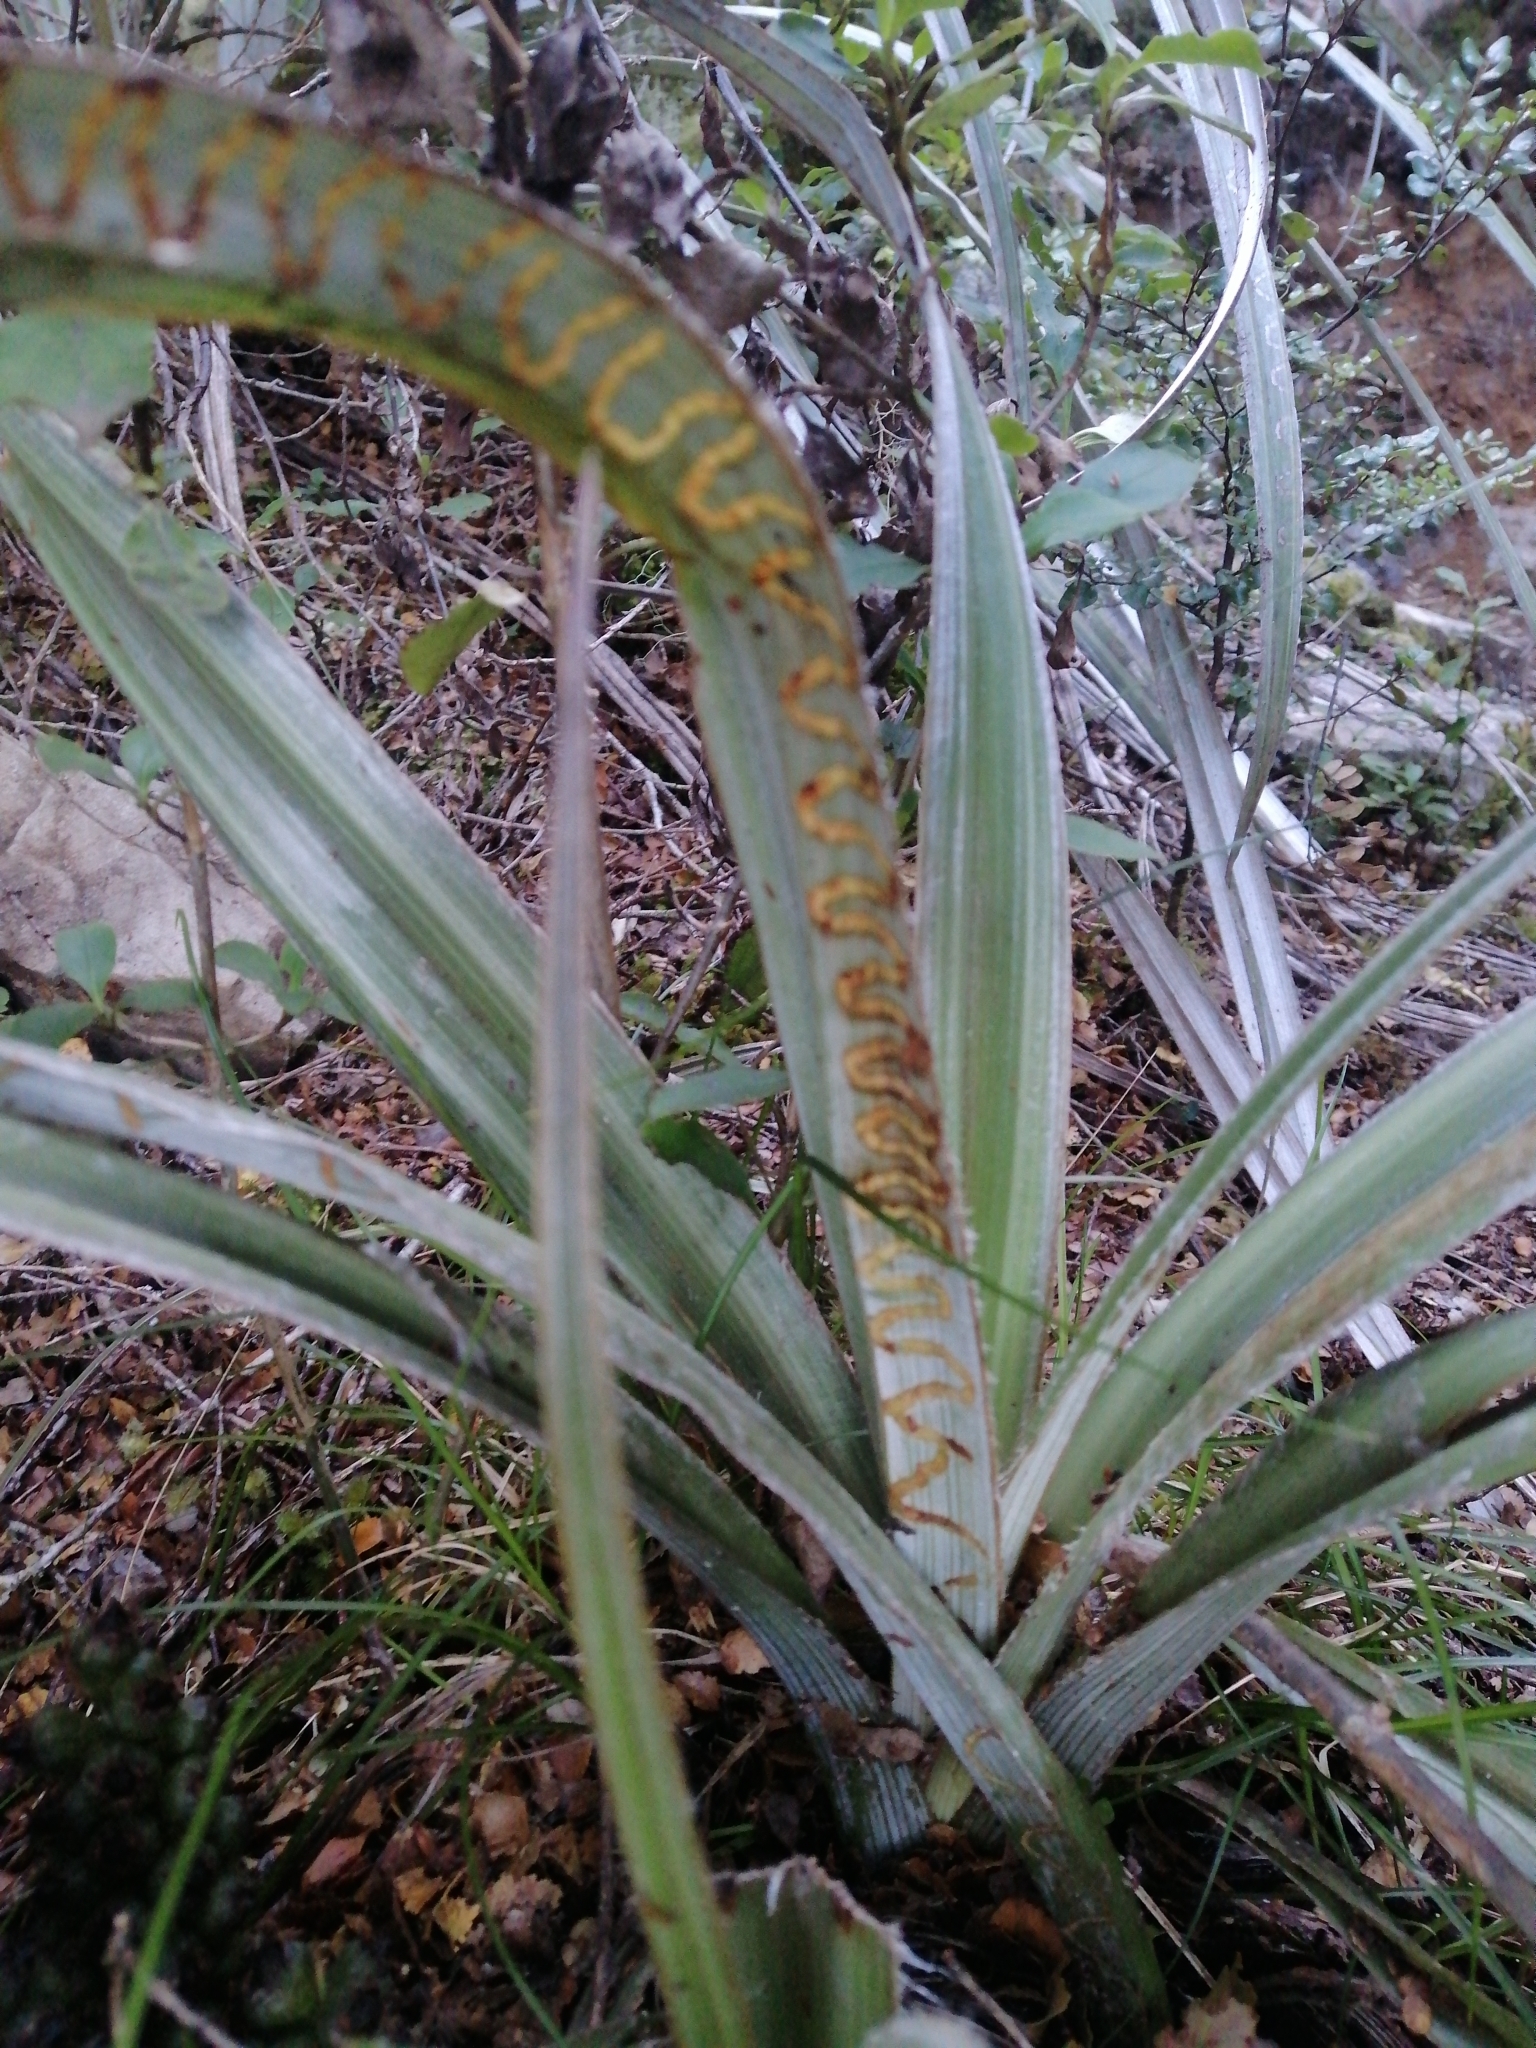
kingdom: Animalia
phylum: Arthropoda
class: Insecta
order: Lepidoptera
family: Plutellidae
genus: Charixena
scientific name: Charixena iridoxa
